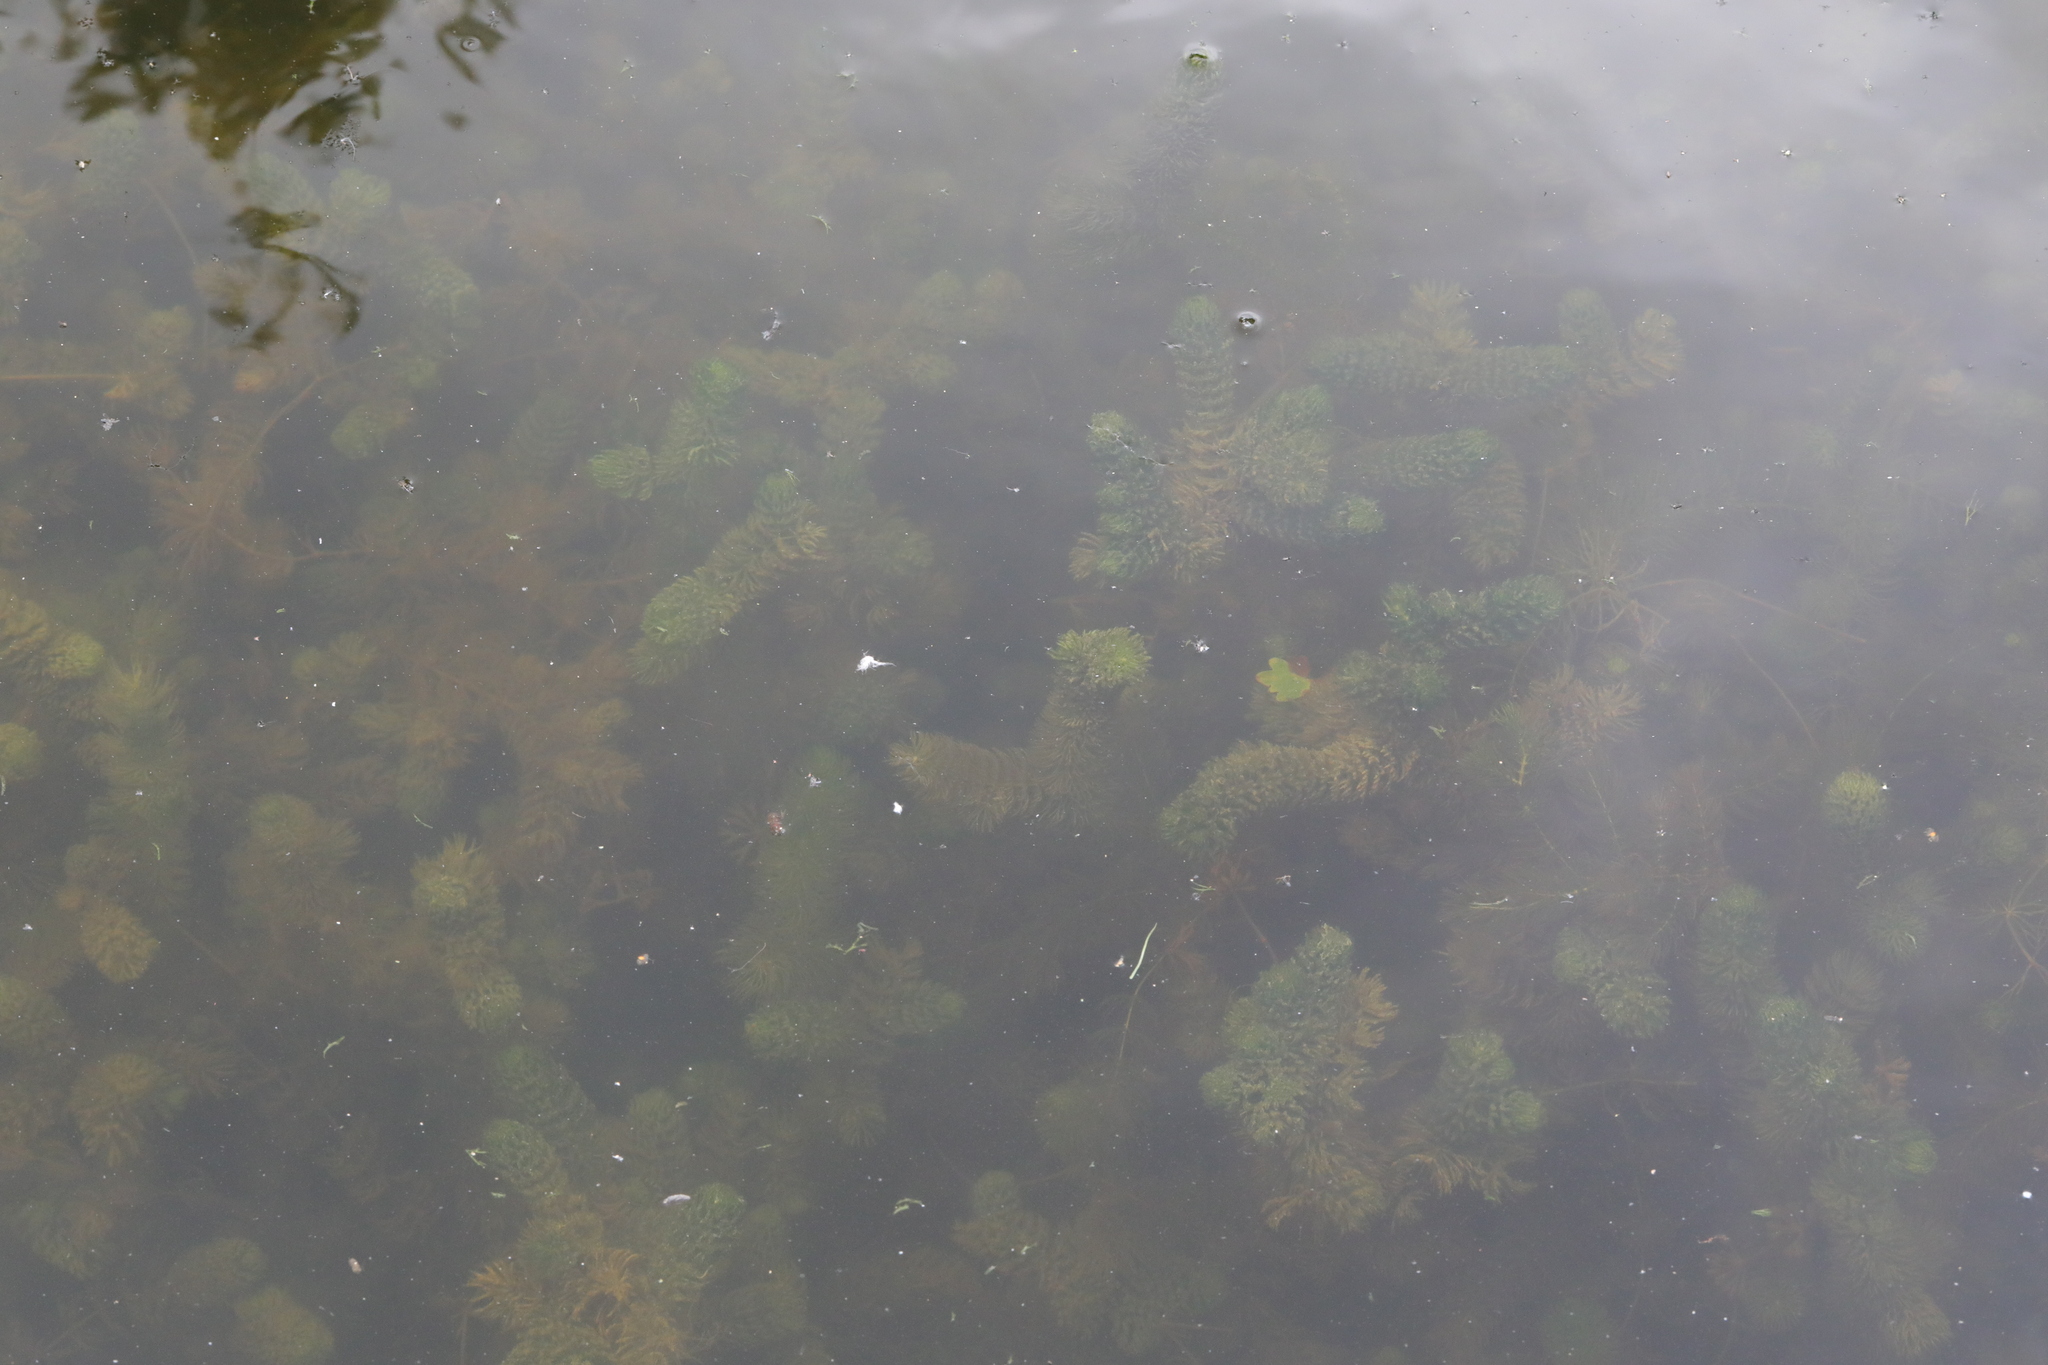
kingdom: Plantae
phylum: Tracheophyta
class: Magnoliopsida
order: Ceratophyllales
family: Ceratophyllaceae
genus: Ceratophyllum
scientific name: Ceratophyllum demersum
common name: Rigid hornwort
